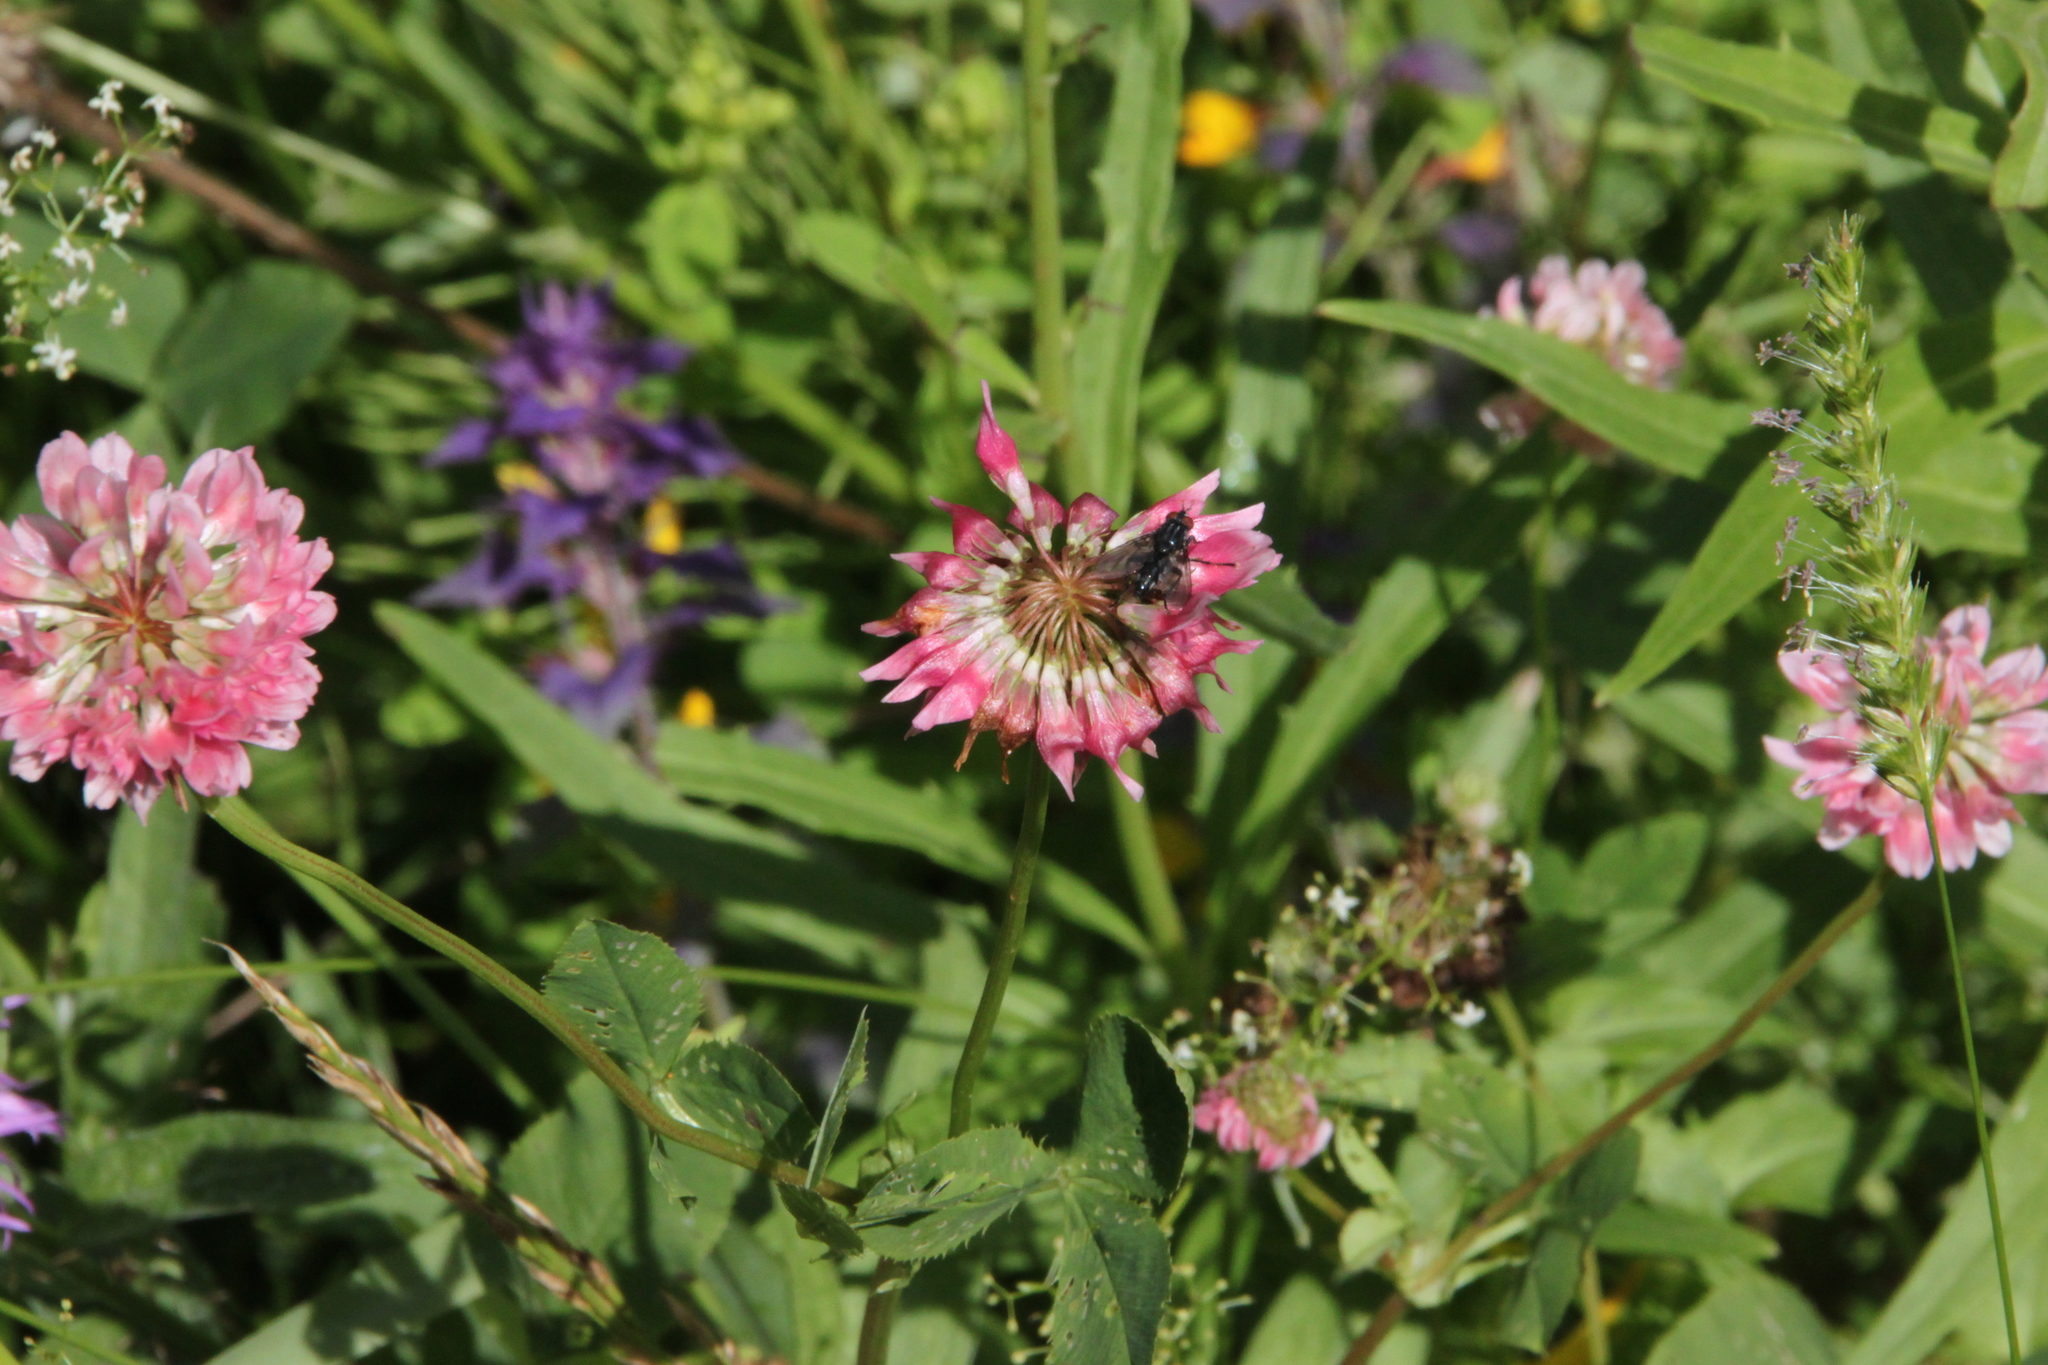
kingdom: Plantae
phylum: Tracheophyta
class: Magnoliopsida
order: Fabales
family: Fabaceae
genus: Trifolium
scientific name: Trifolium hybridum
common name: Alsike clover
